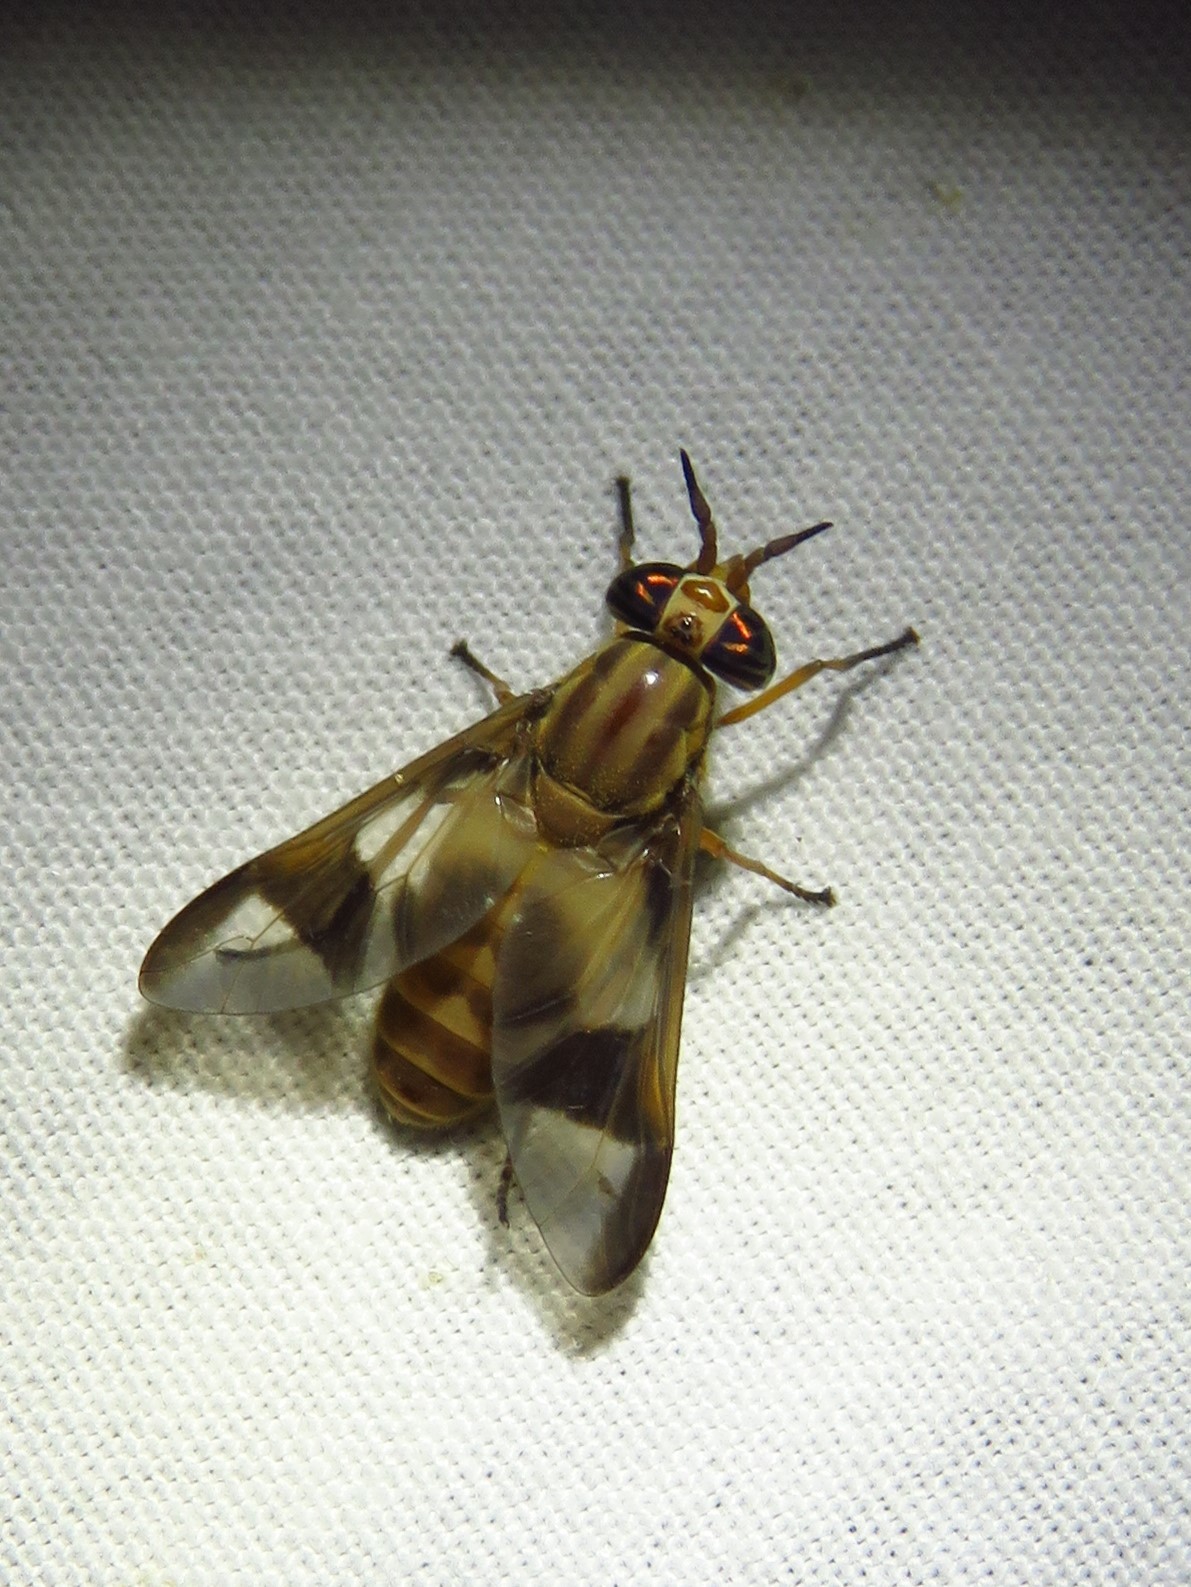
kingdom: Animalia
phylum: Arthropoda
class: Insecta
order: Diptera
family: Tabanidae
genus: Chrysops
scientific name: Chrysops flavidus
